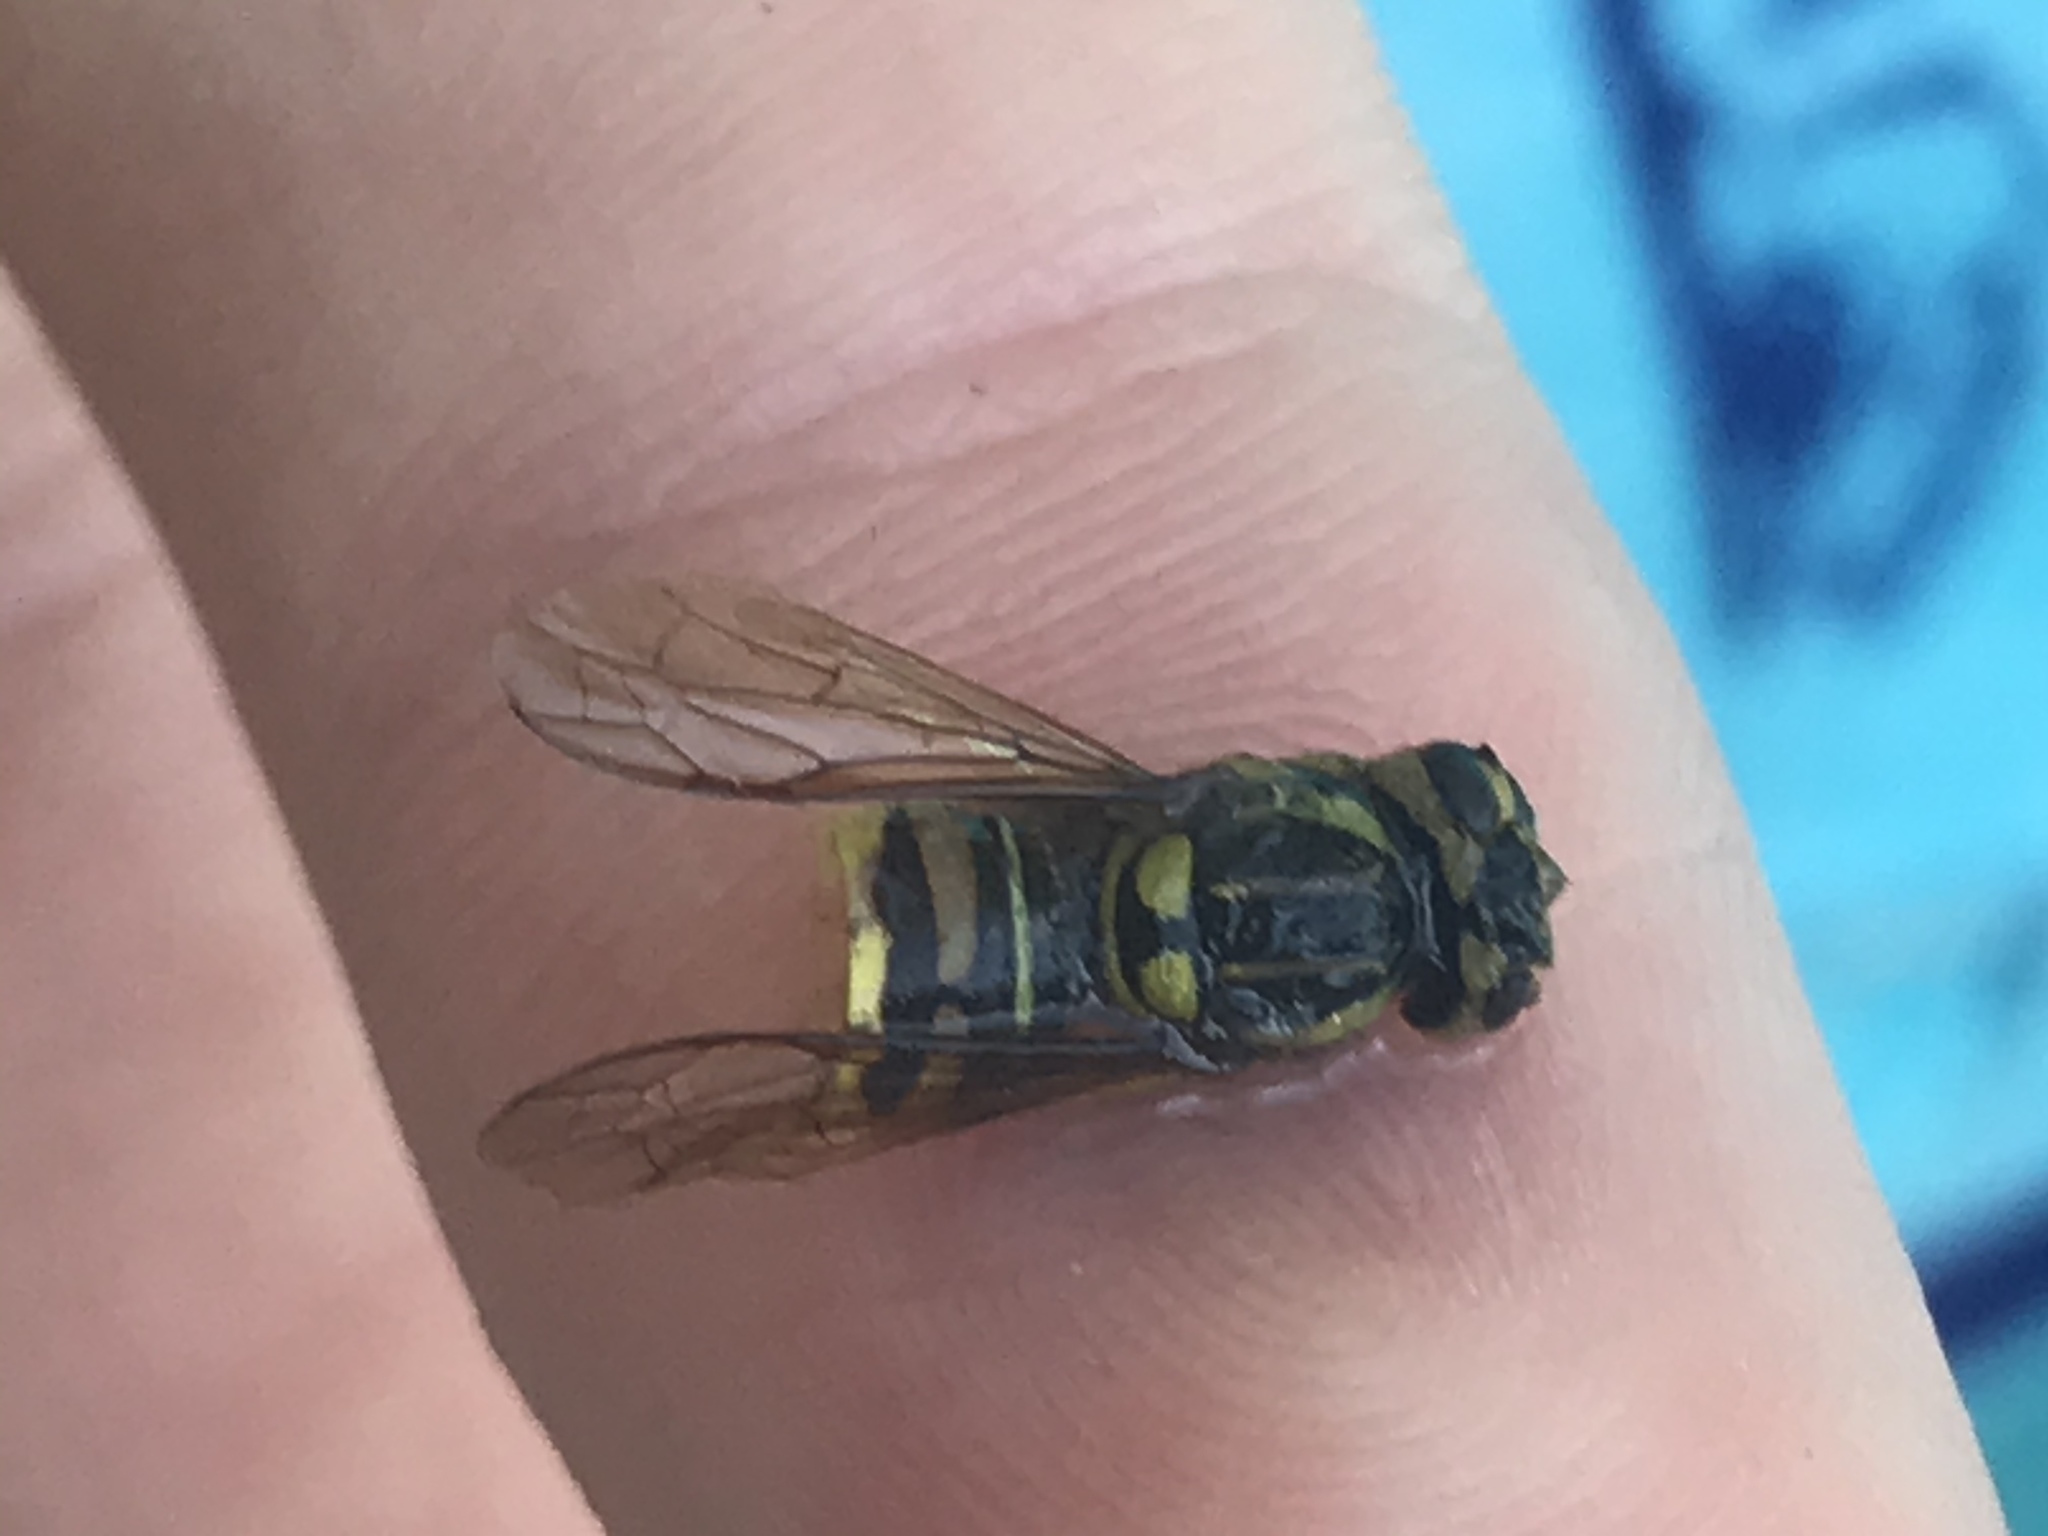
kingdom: Animalia
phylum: Arthropoda
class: Insecta
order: Hymenoptera
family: Vespidae
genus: Vespula
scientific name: Vespula squamosa
